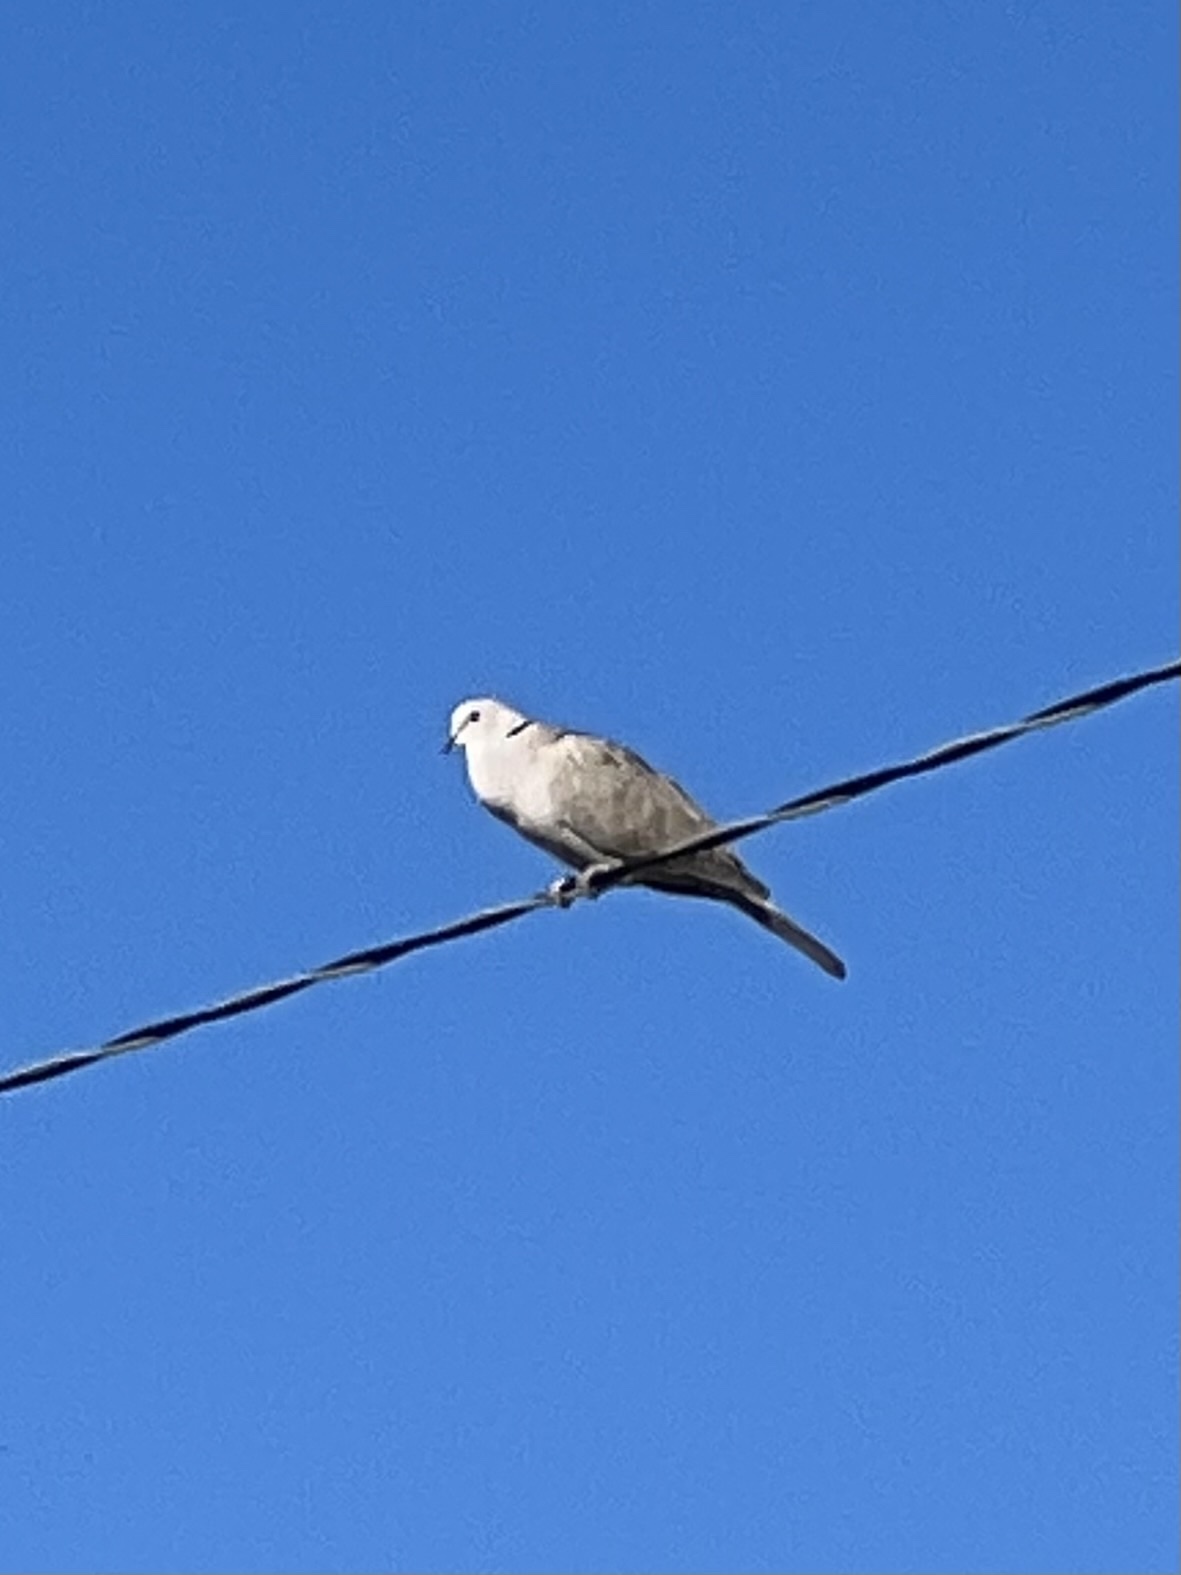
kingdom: Animalia
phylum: Chordata
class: Aves
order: Columbiformes
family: Columbidae
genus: Streptopelia
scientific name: Streptopelia decaocto
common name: Eurasian collared dove
